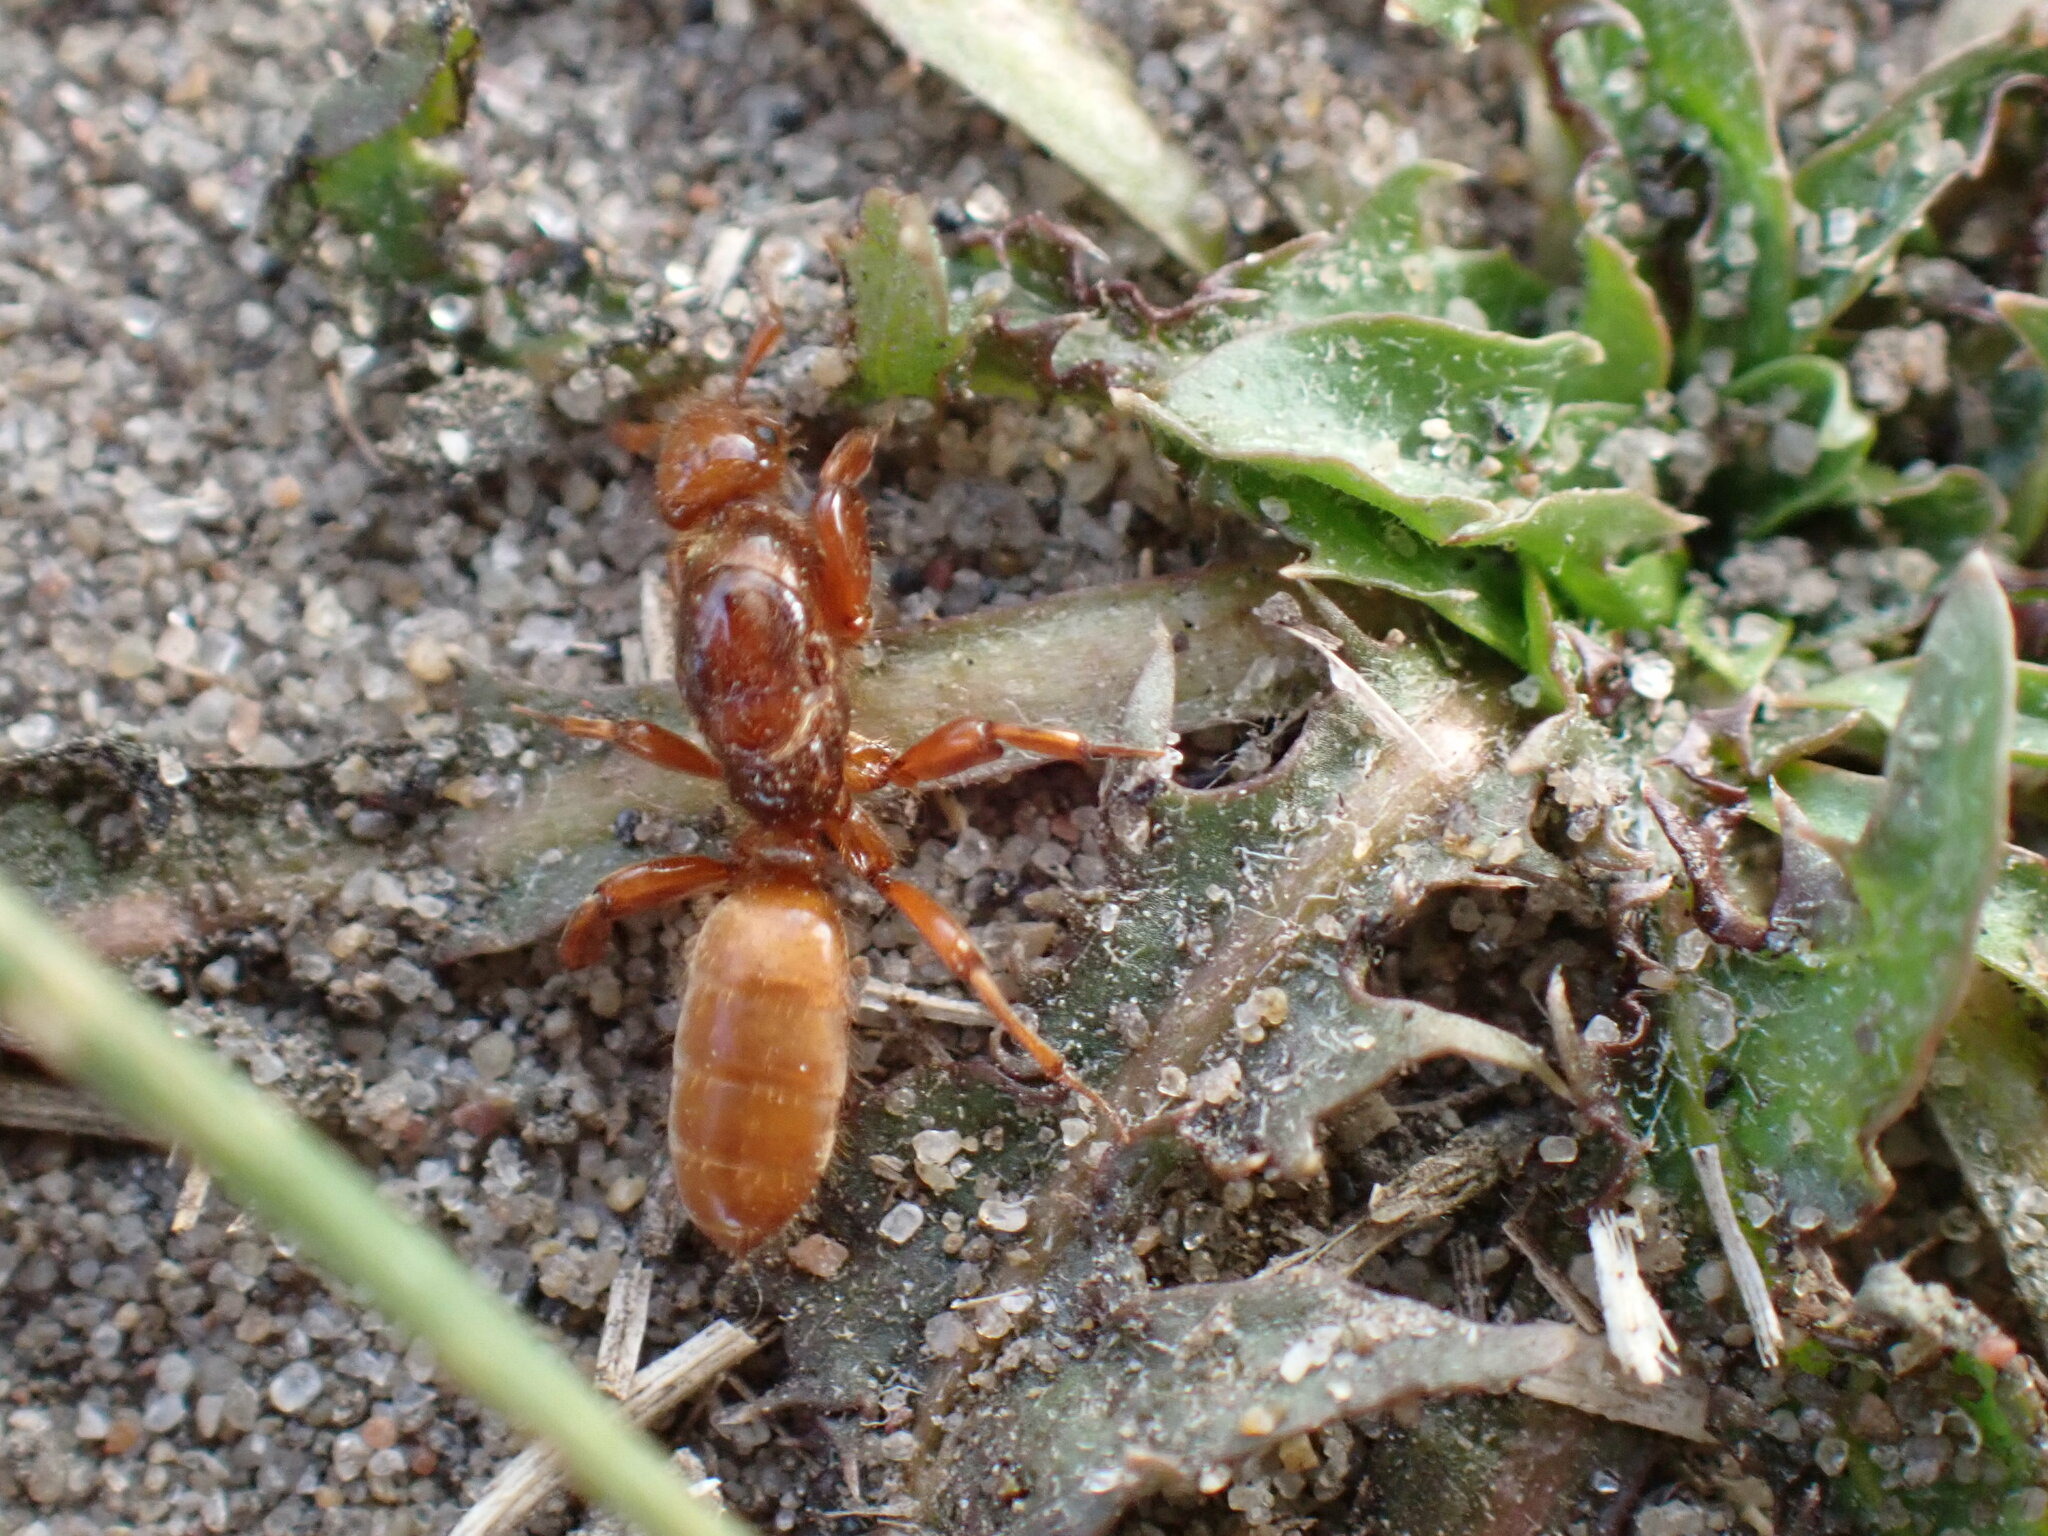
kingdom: Animalia
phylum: Arthropoda
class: Insecta
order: Hymenoptera
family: Formicidae
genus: Acanthomyops
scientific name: Acanthomyops latipes
